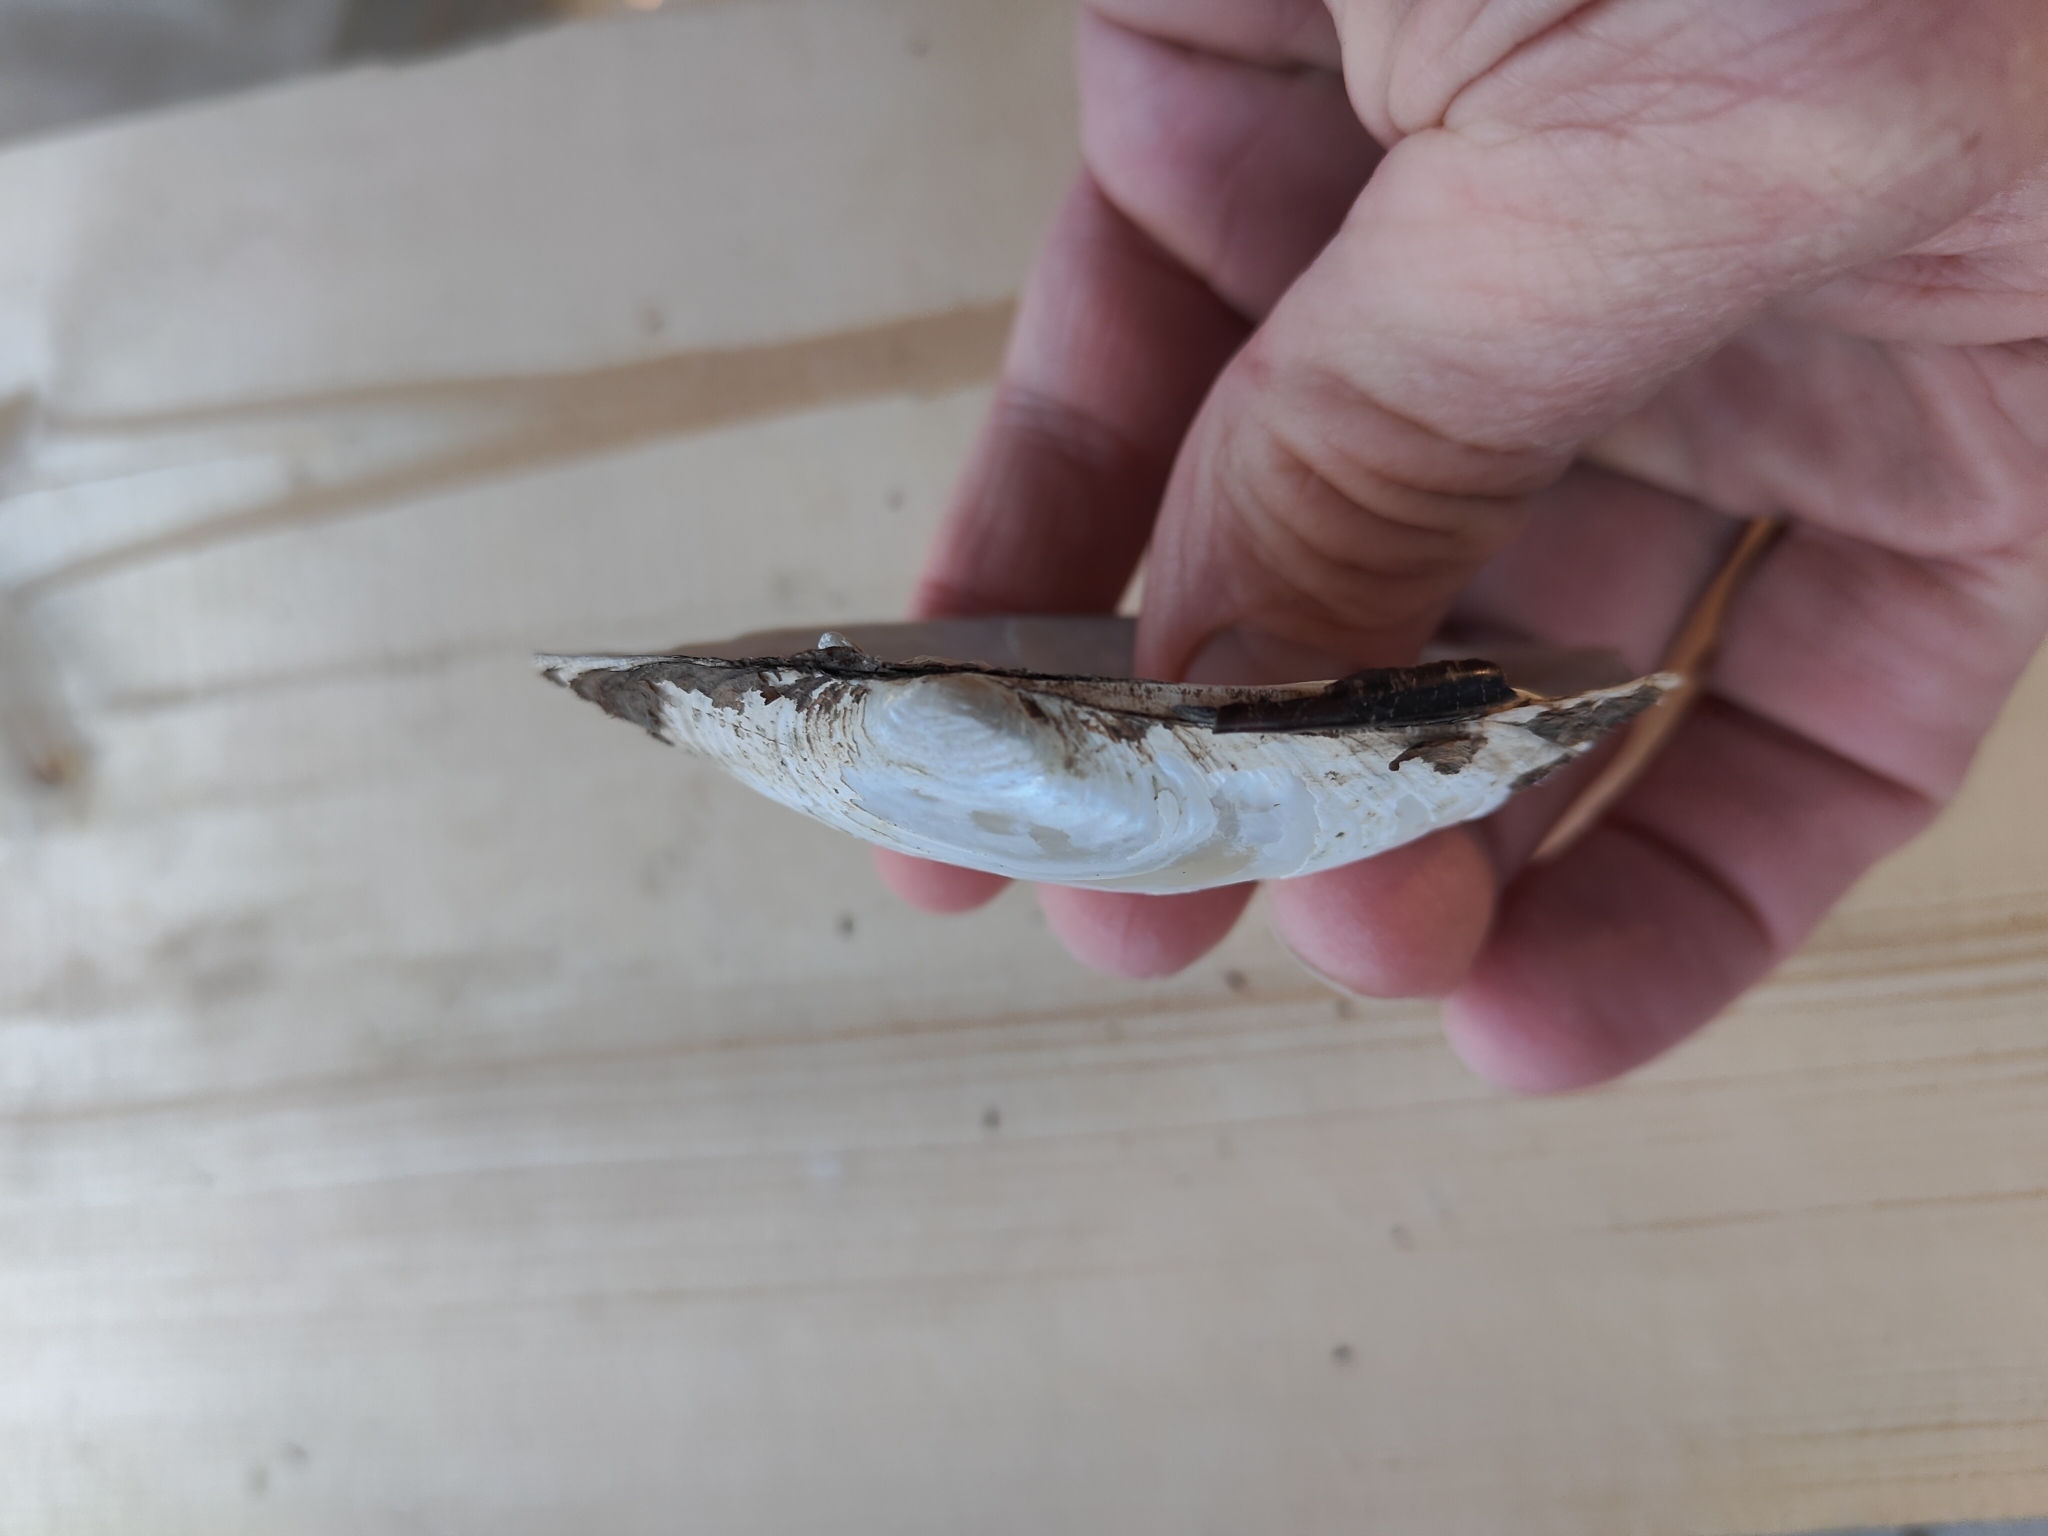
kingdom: Animalia
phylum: Mollusca
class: Bivalvia
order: Unionida
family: Unionidae
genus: Lampsilis
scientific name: Lampsilis siliquoidea
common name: Fatmucket
